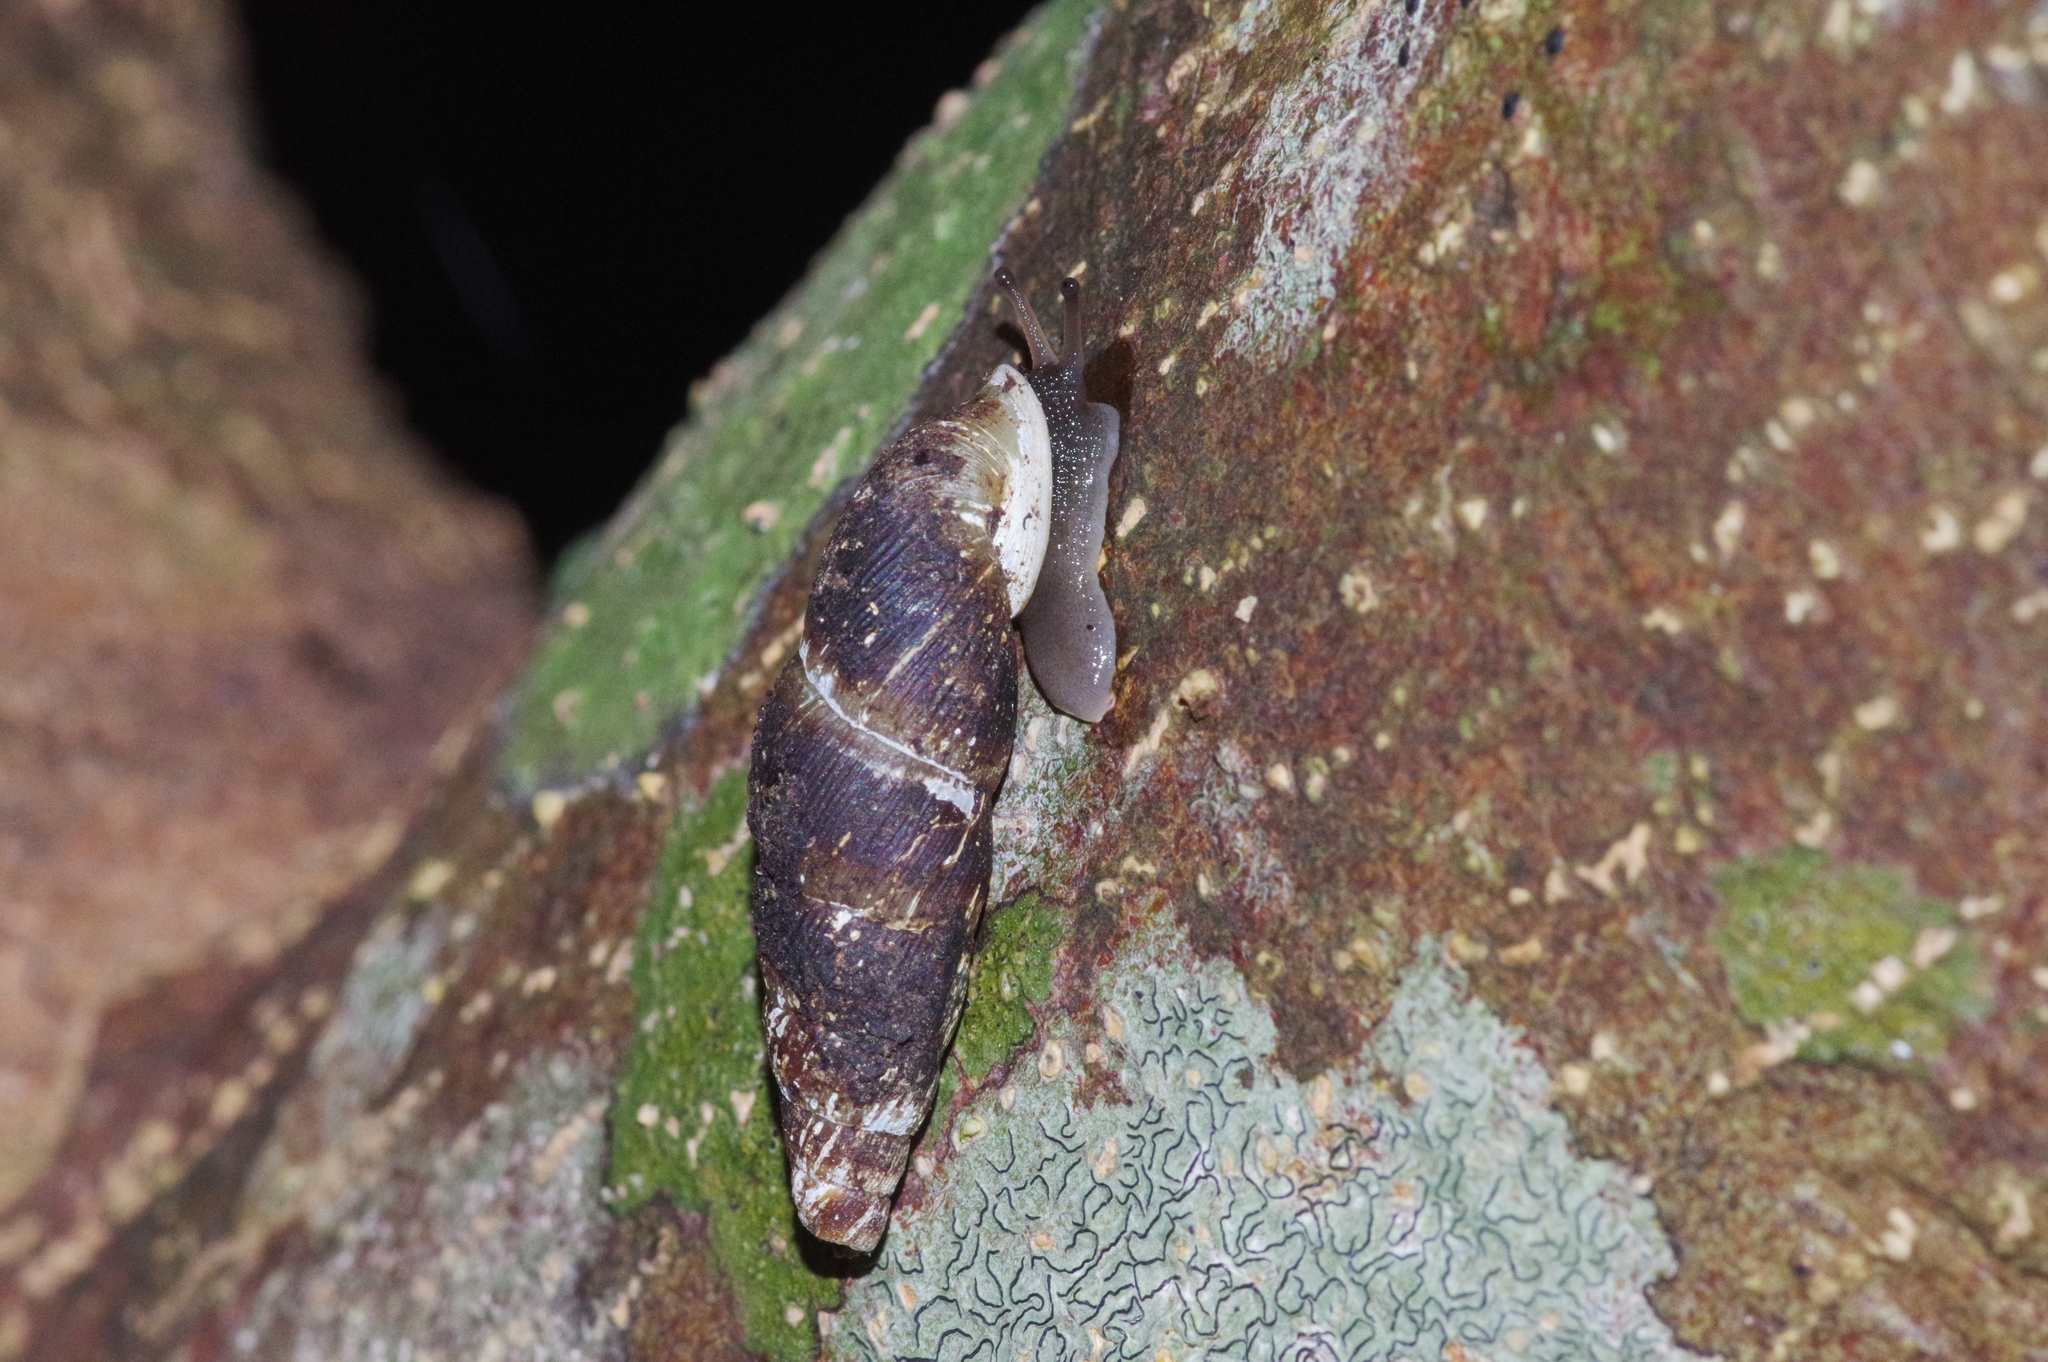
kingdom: Animalia
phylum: Mollusca
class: Gastropoda
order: Stylommatophora
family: Clausiliidae
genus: Stereophaedusa
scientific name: Stereophaedusa valida
